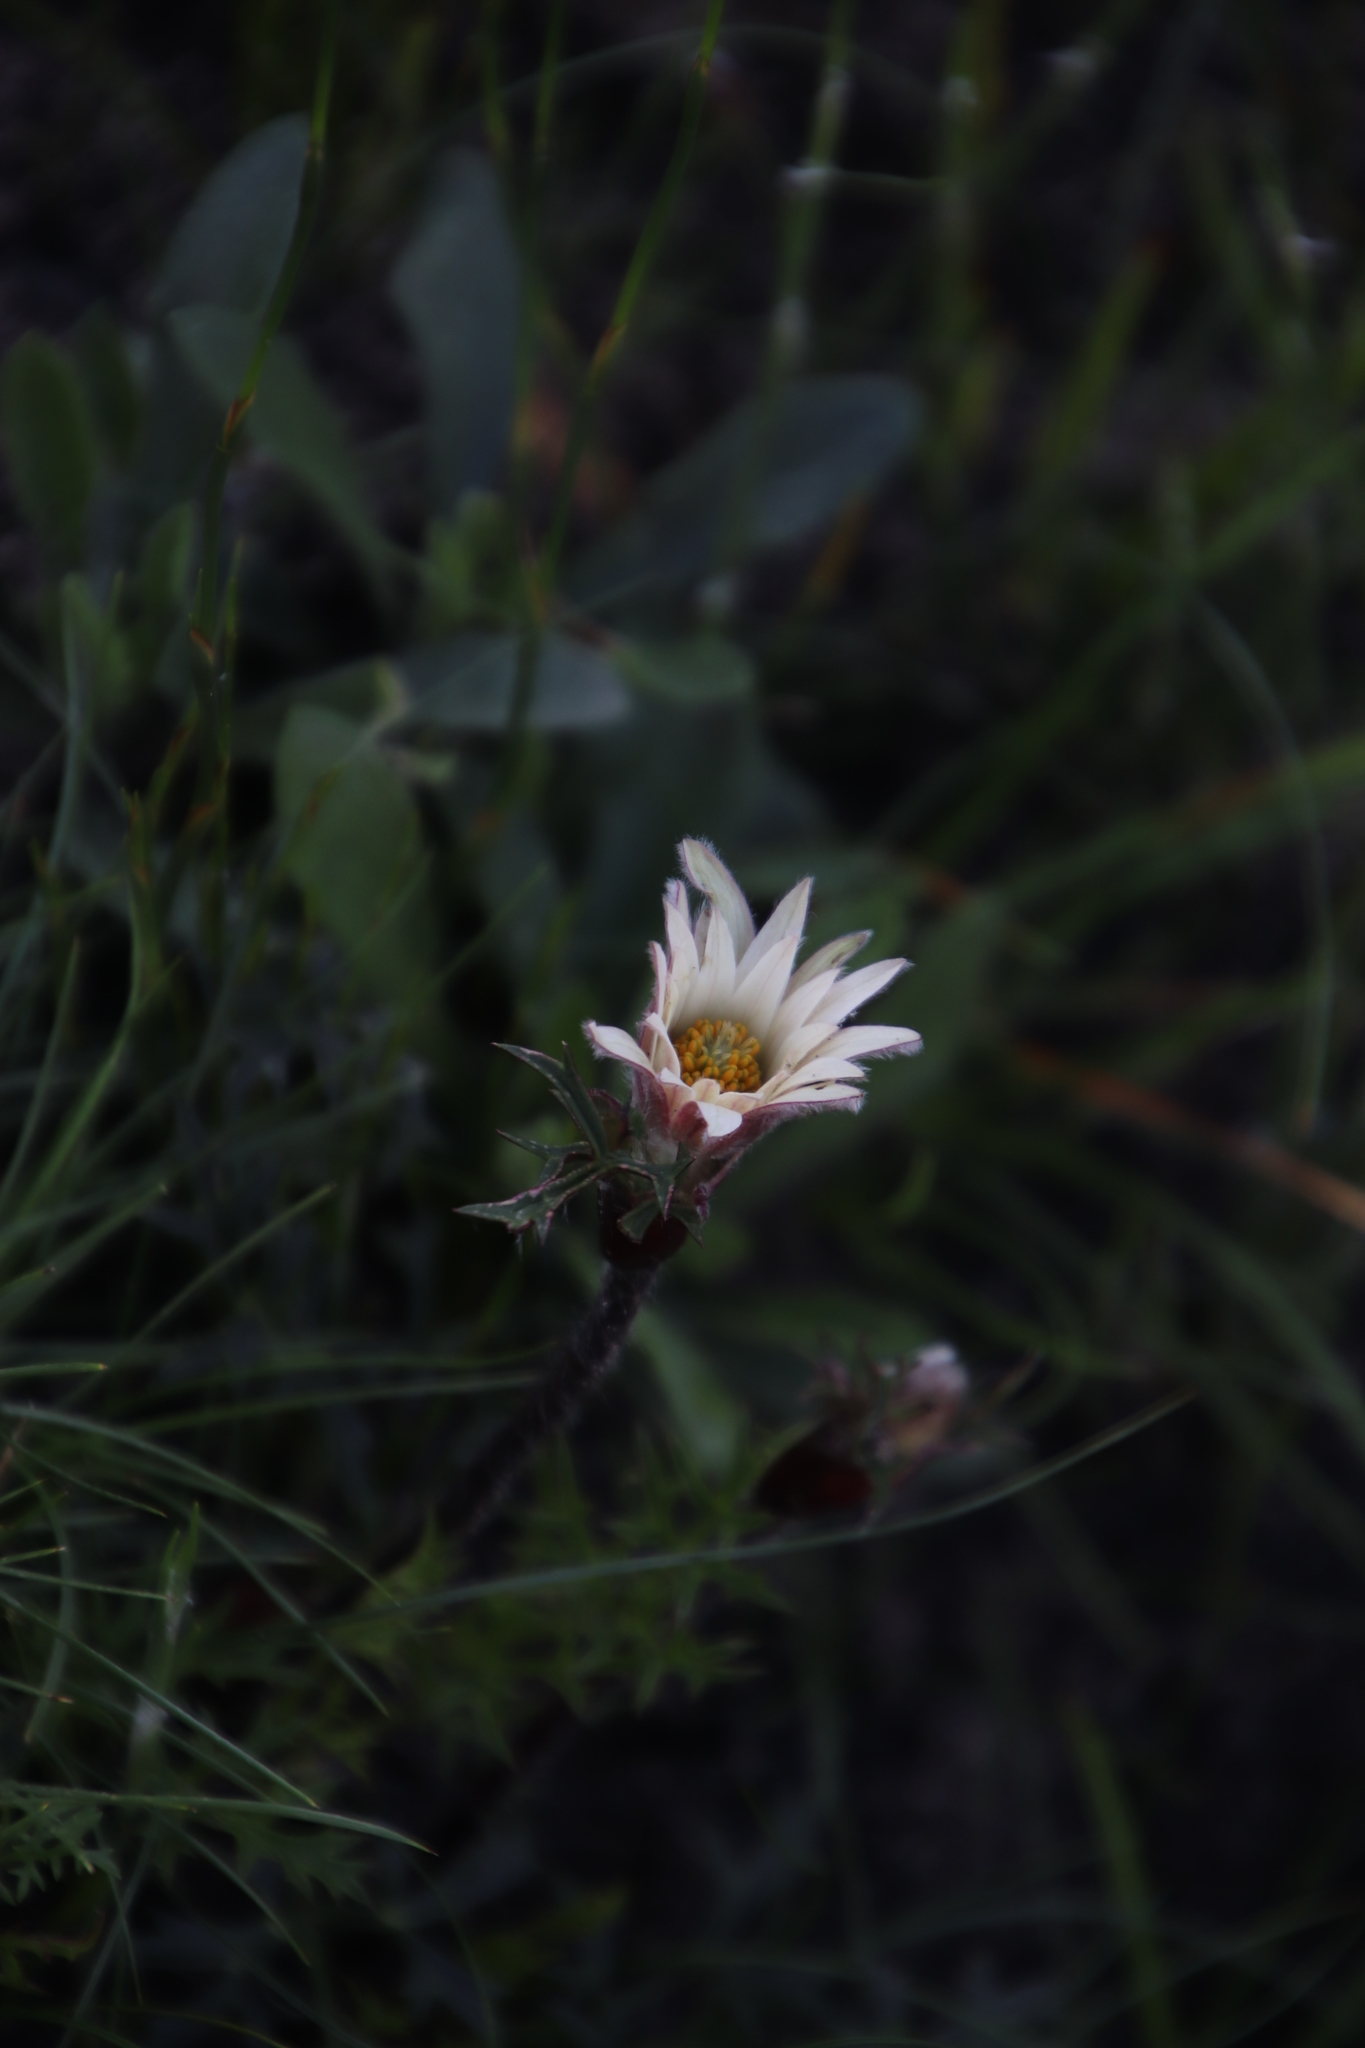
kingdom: Plantae
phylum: Tracheophyta
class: Magnoliopsida
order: Ranunculales
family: Ranunculaceae
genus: Knowltonia
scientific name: Knowltonia tenuifolia
